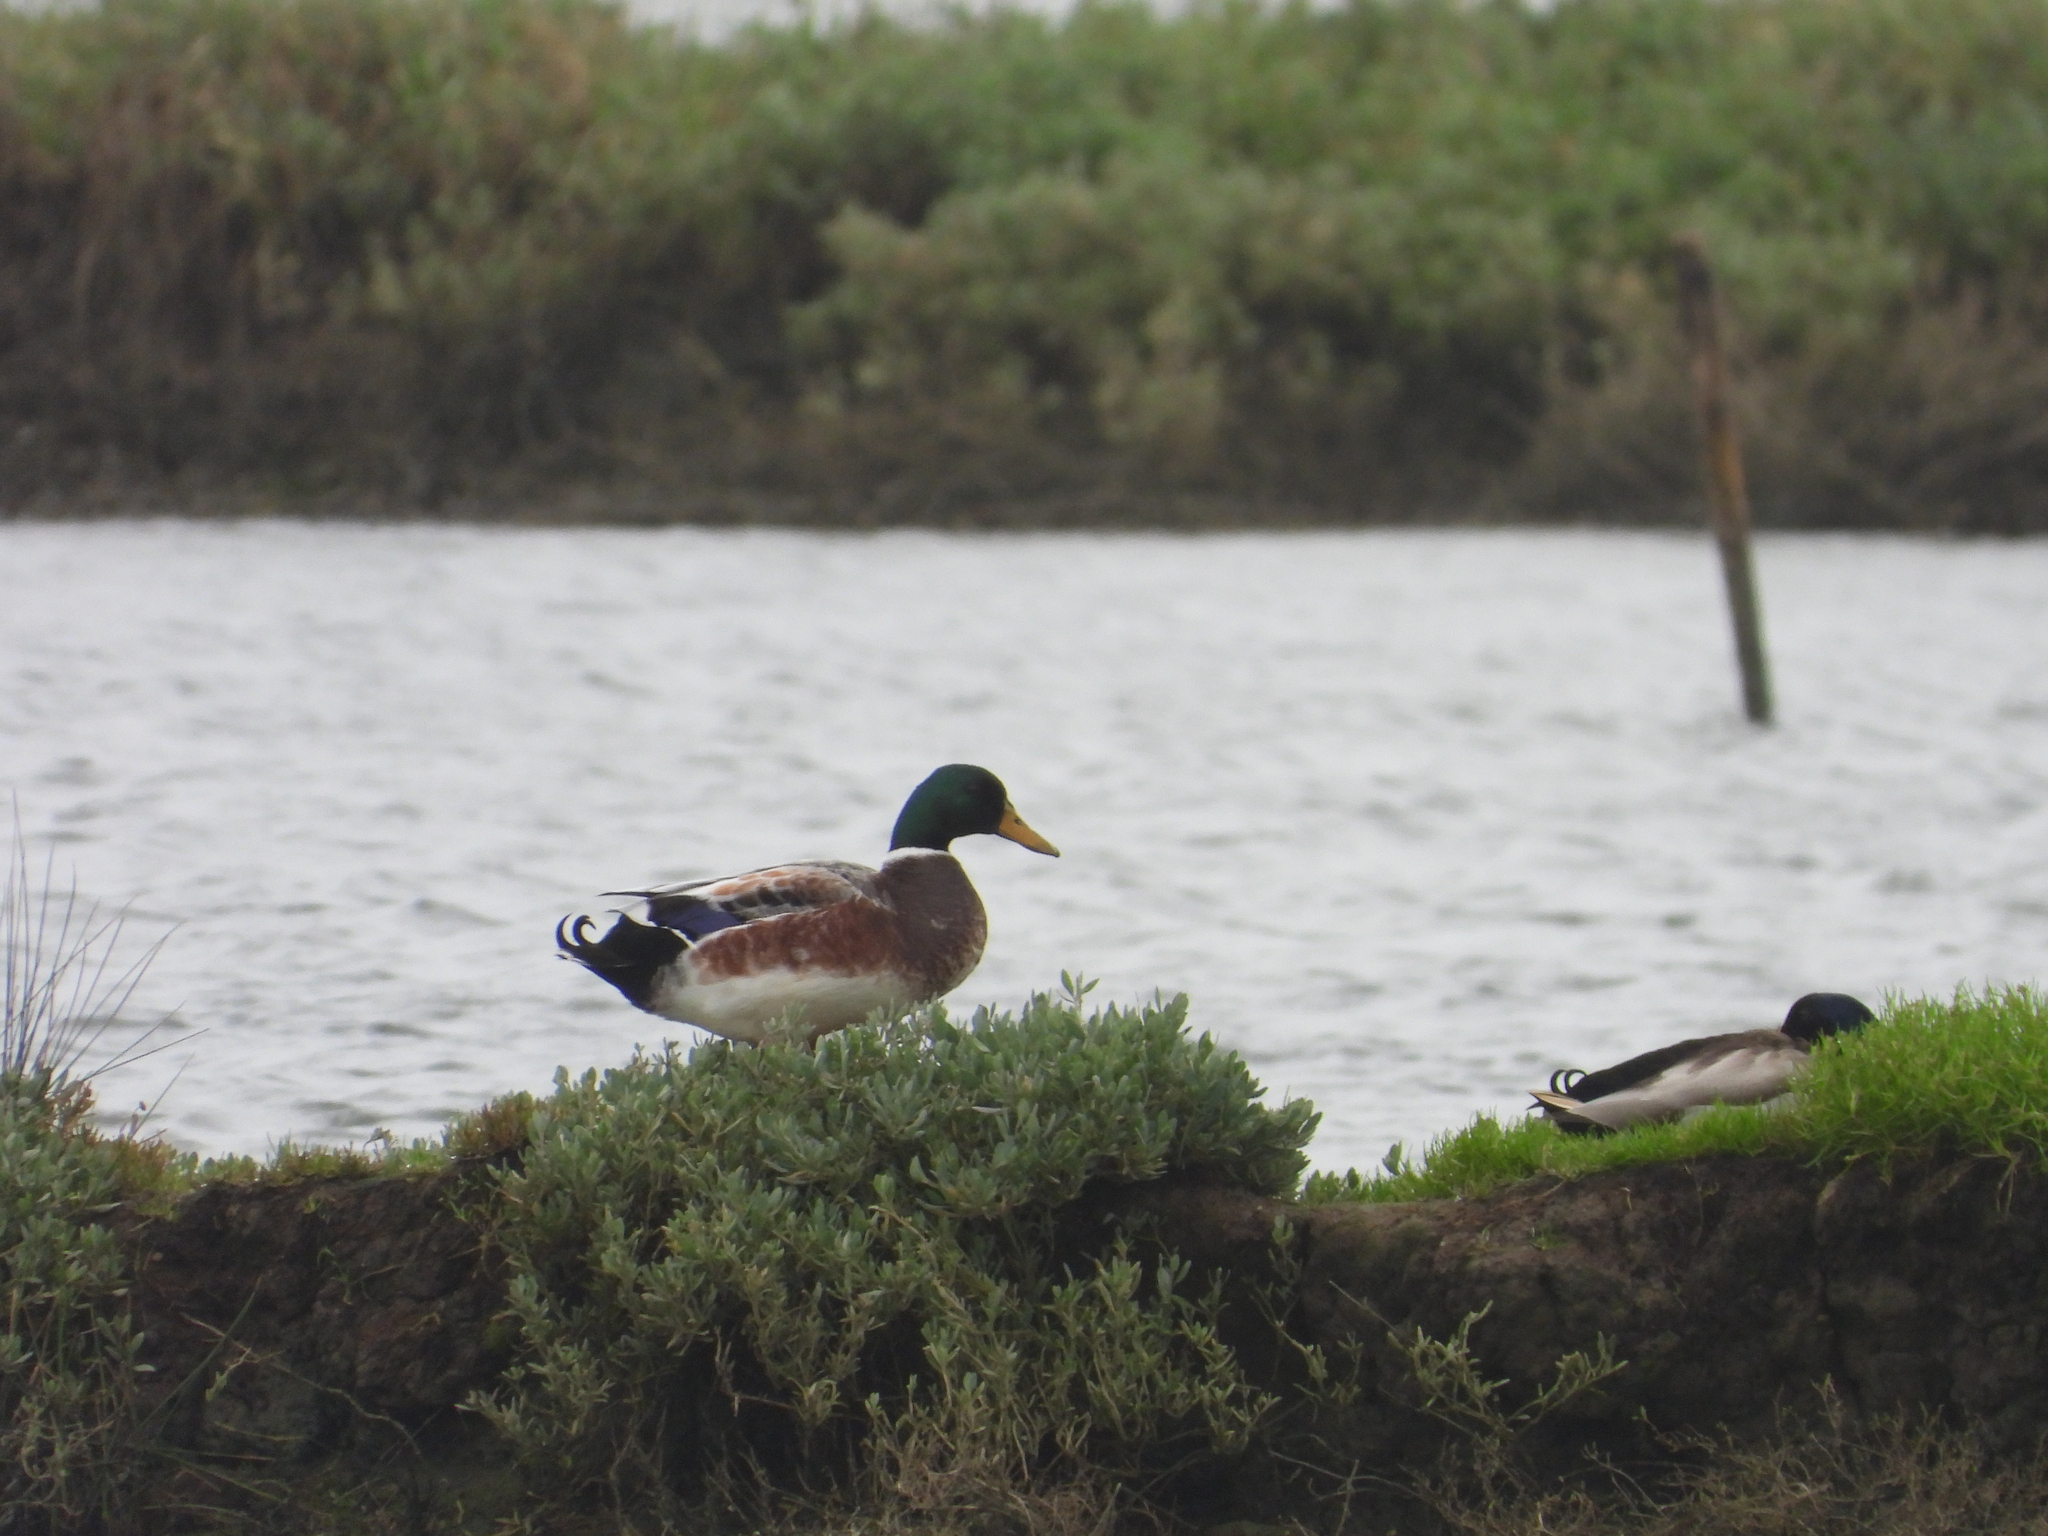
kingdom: Animalia
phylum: Chordata
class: Aves
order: Anseriformes
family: Anatidae
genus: Anas
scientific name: Anas platyrhynchos
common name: Mallard
